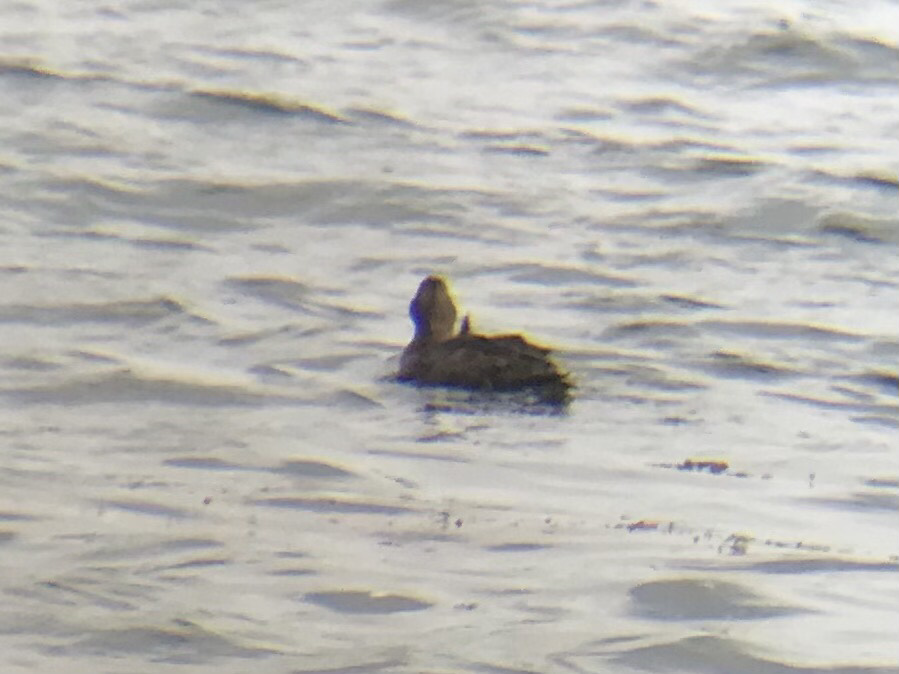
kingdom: Animalia
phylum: Chordata
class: Aves
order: Anseriformes
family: Anatidae
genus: Somateria
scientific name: Somateria mollissima
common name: Common eider
